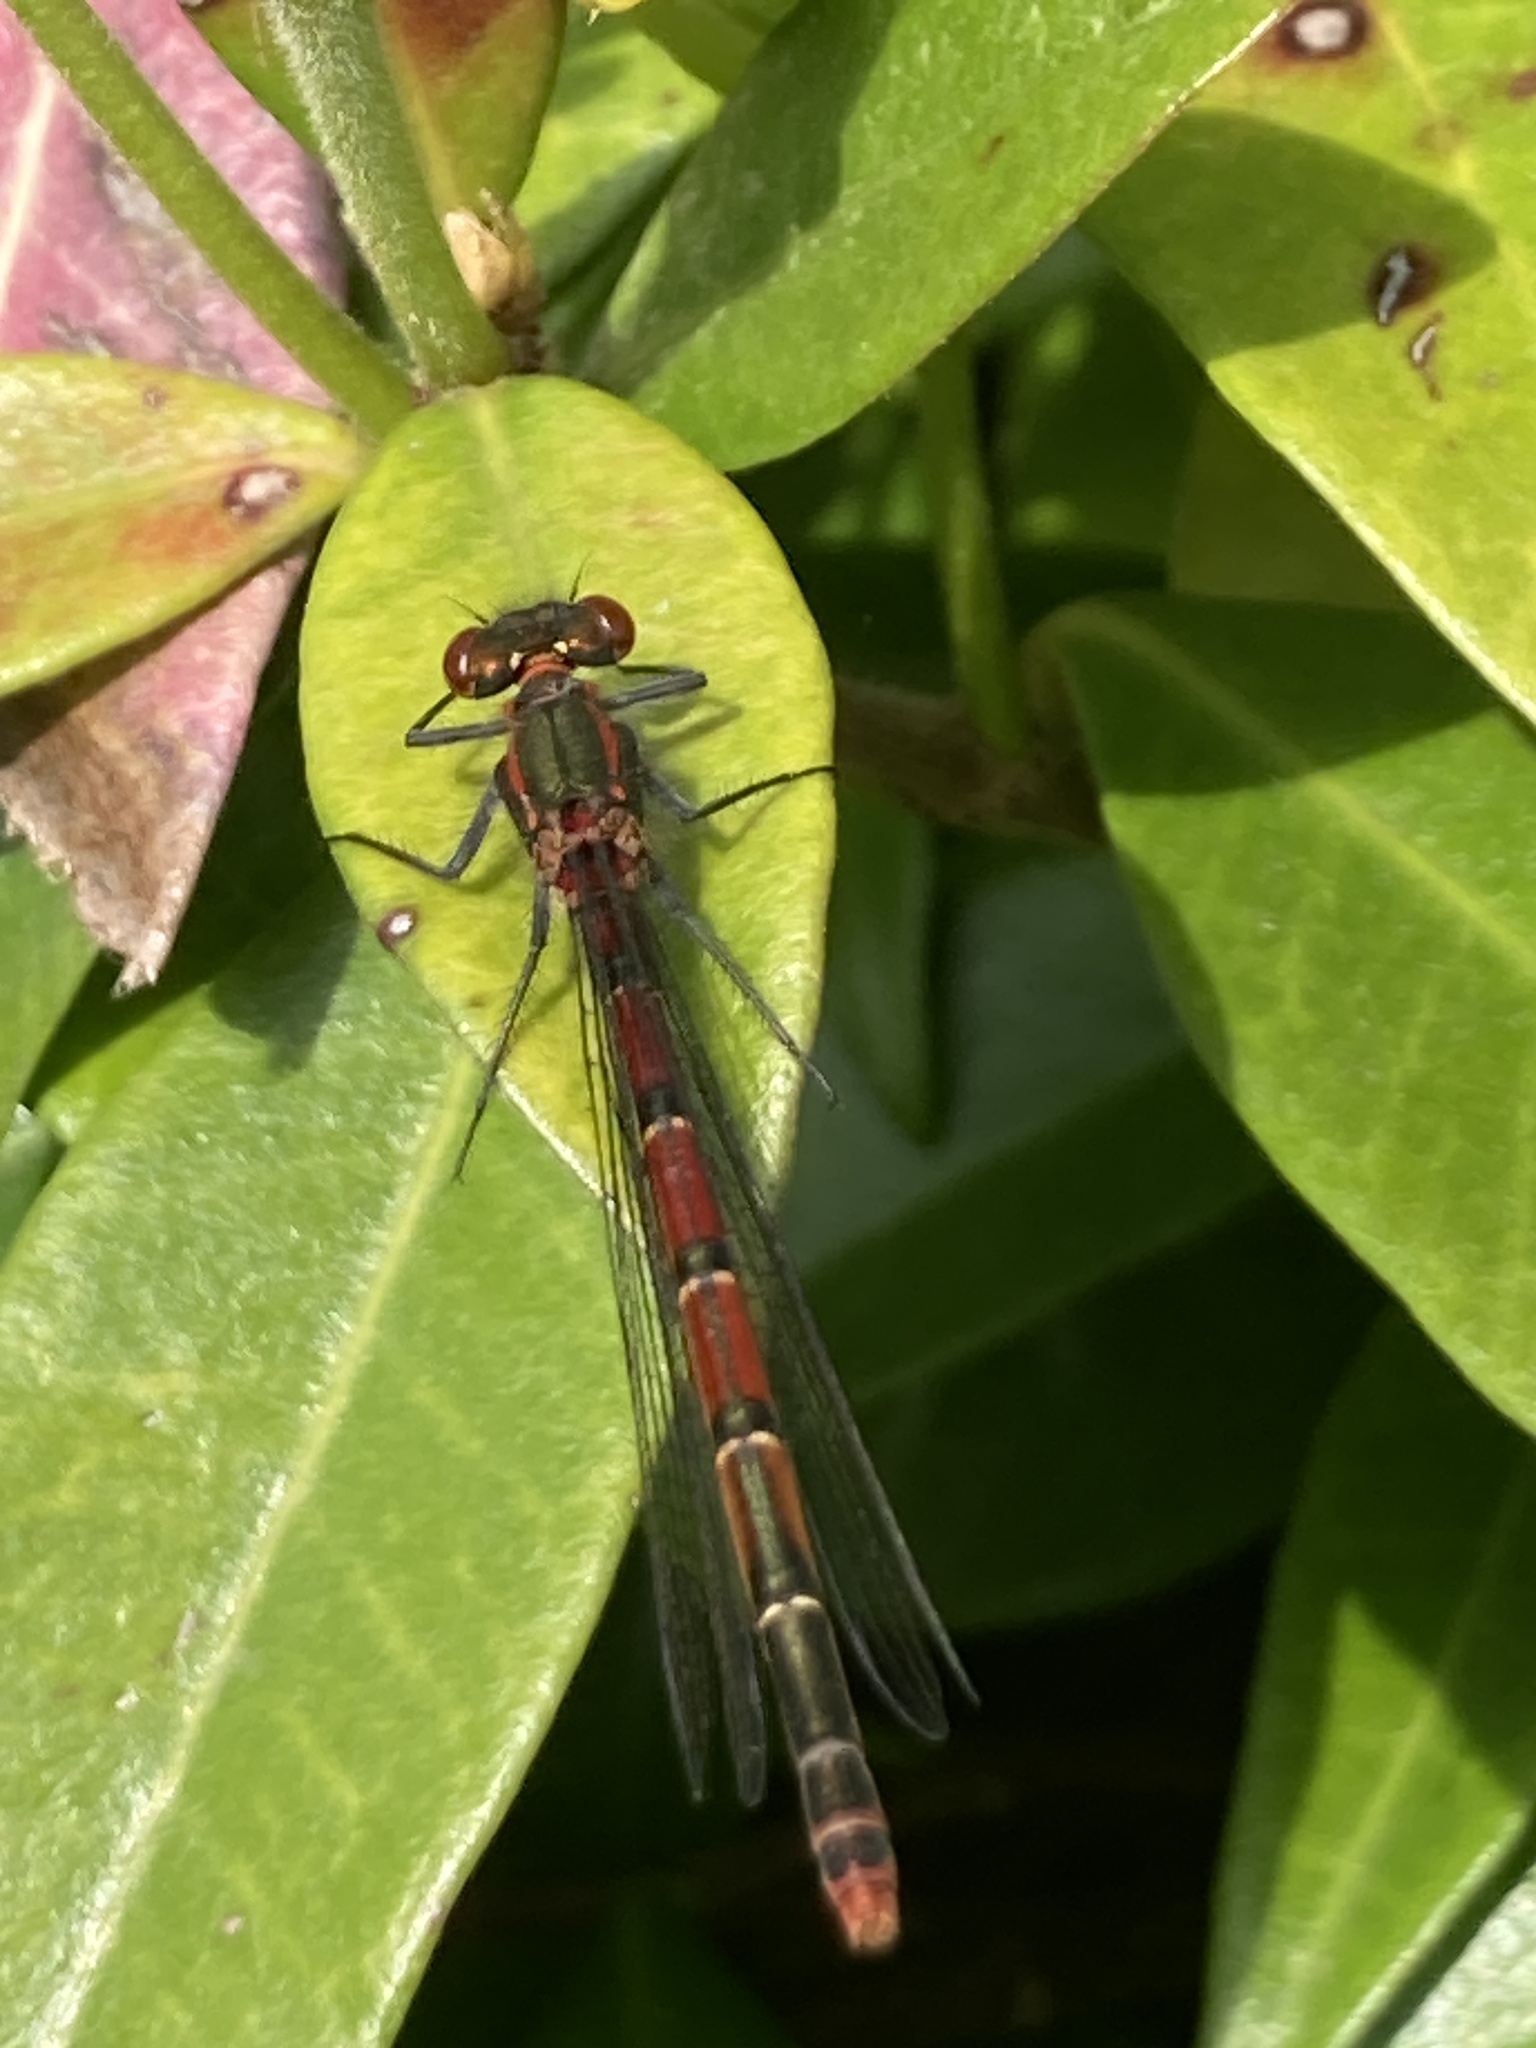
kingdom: Animalia
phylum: Arthropoda
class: Insecta
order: Odonata
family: Coenagrionidae
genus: Pyrrhosoma
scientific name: Pyrrhosoma nymphula
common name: Large red damsel
